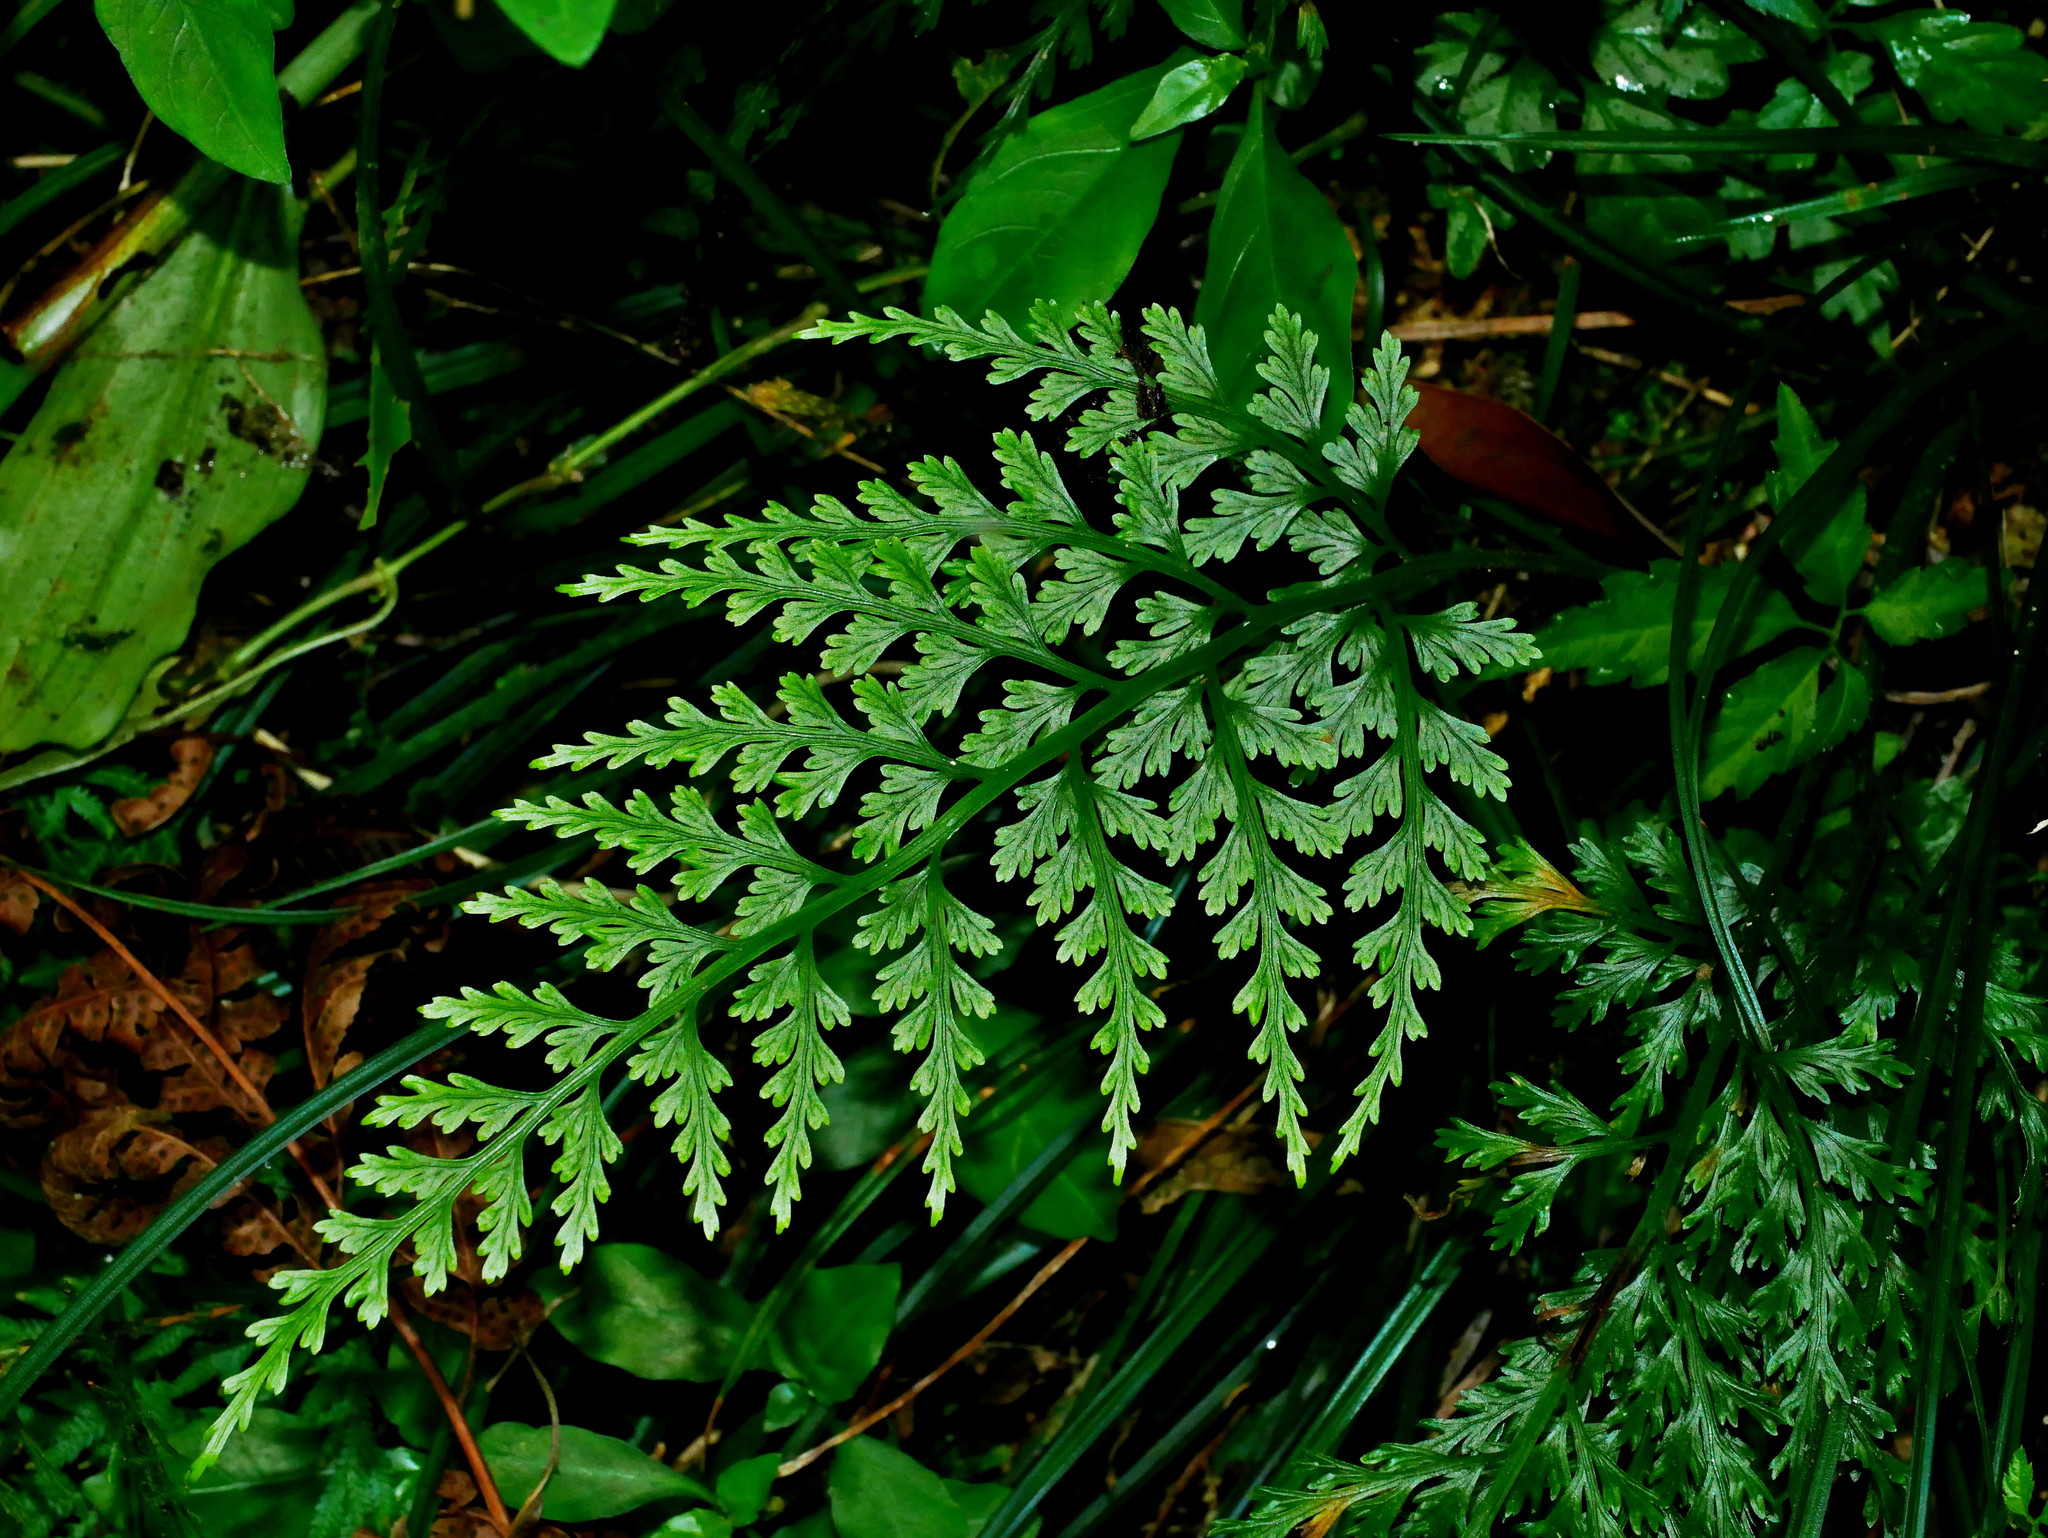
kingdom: Plantae
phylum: Tracheophyta
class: Polypodiopsida
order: Polypodiales
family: Aspleniaceae
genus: Asplenium
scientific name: Asplenium ritoense
